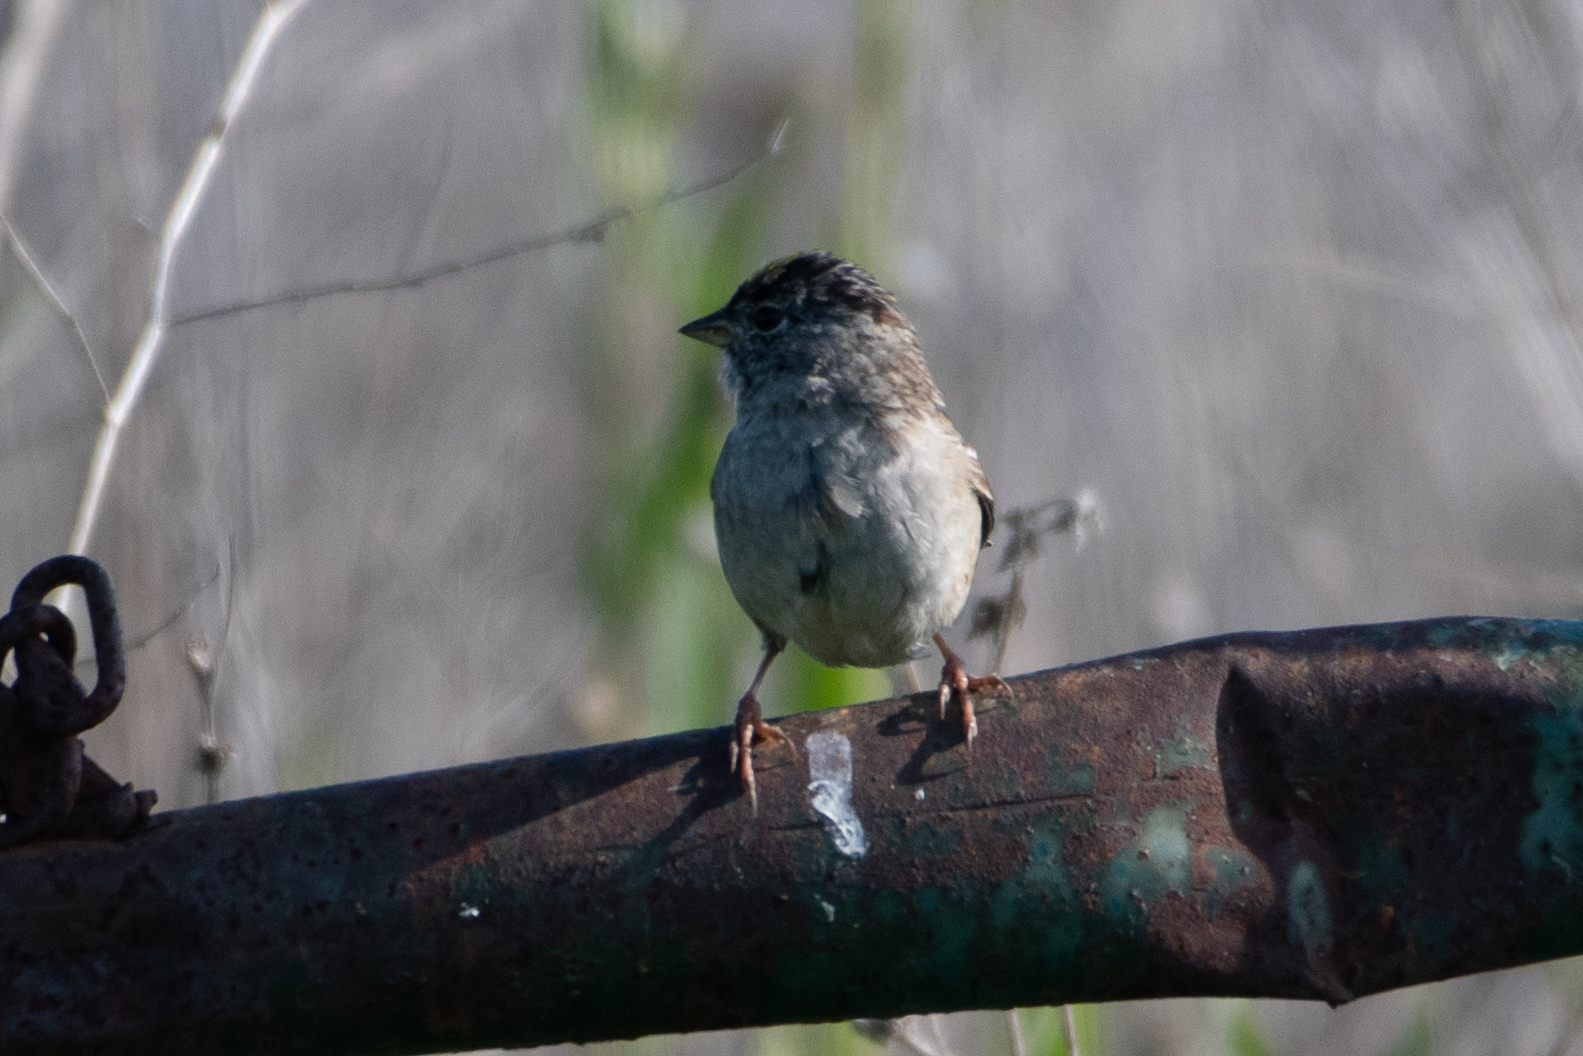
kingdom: Animalia
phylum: Chordata
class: Aves
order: Passeriformes
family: Passerellidae
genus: Zonotrichia
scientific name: Zonotrichia atricapilla
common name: Golden-crowned sparrow
